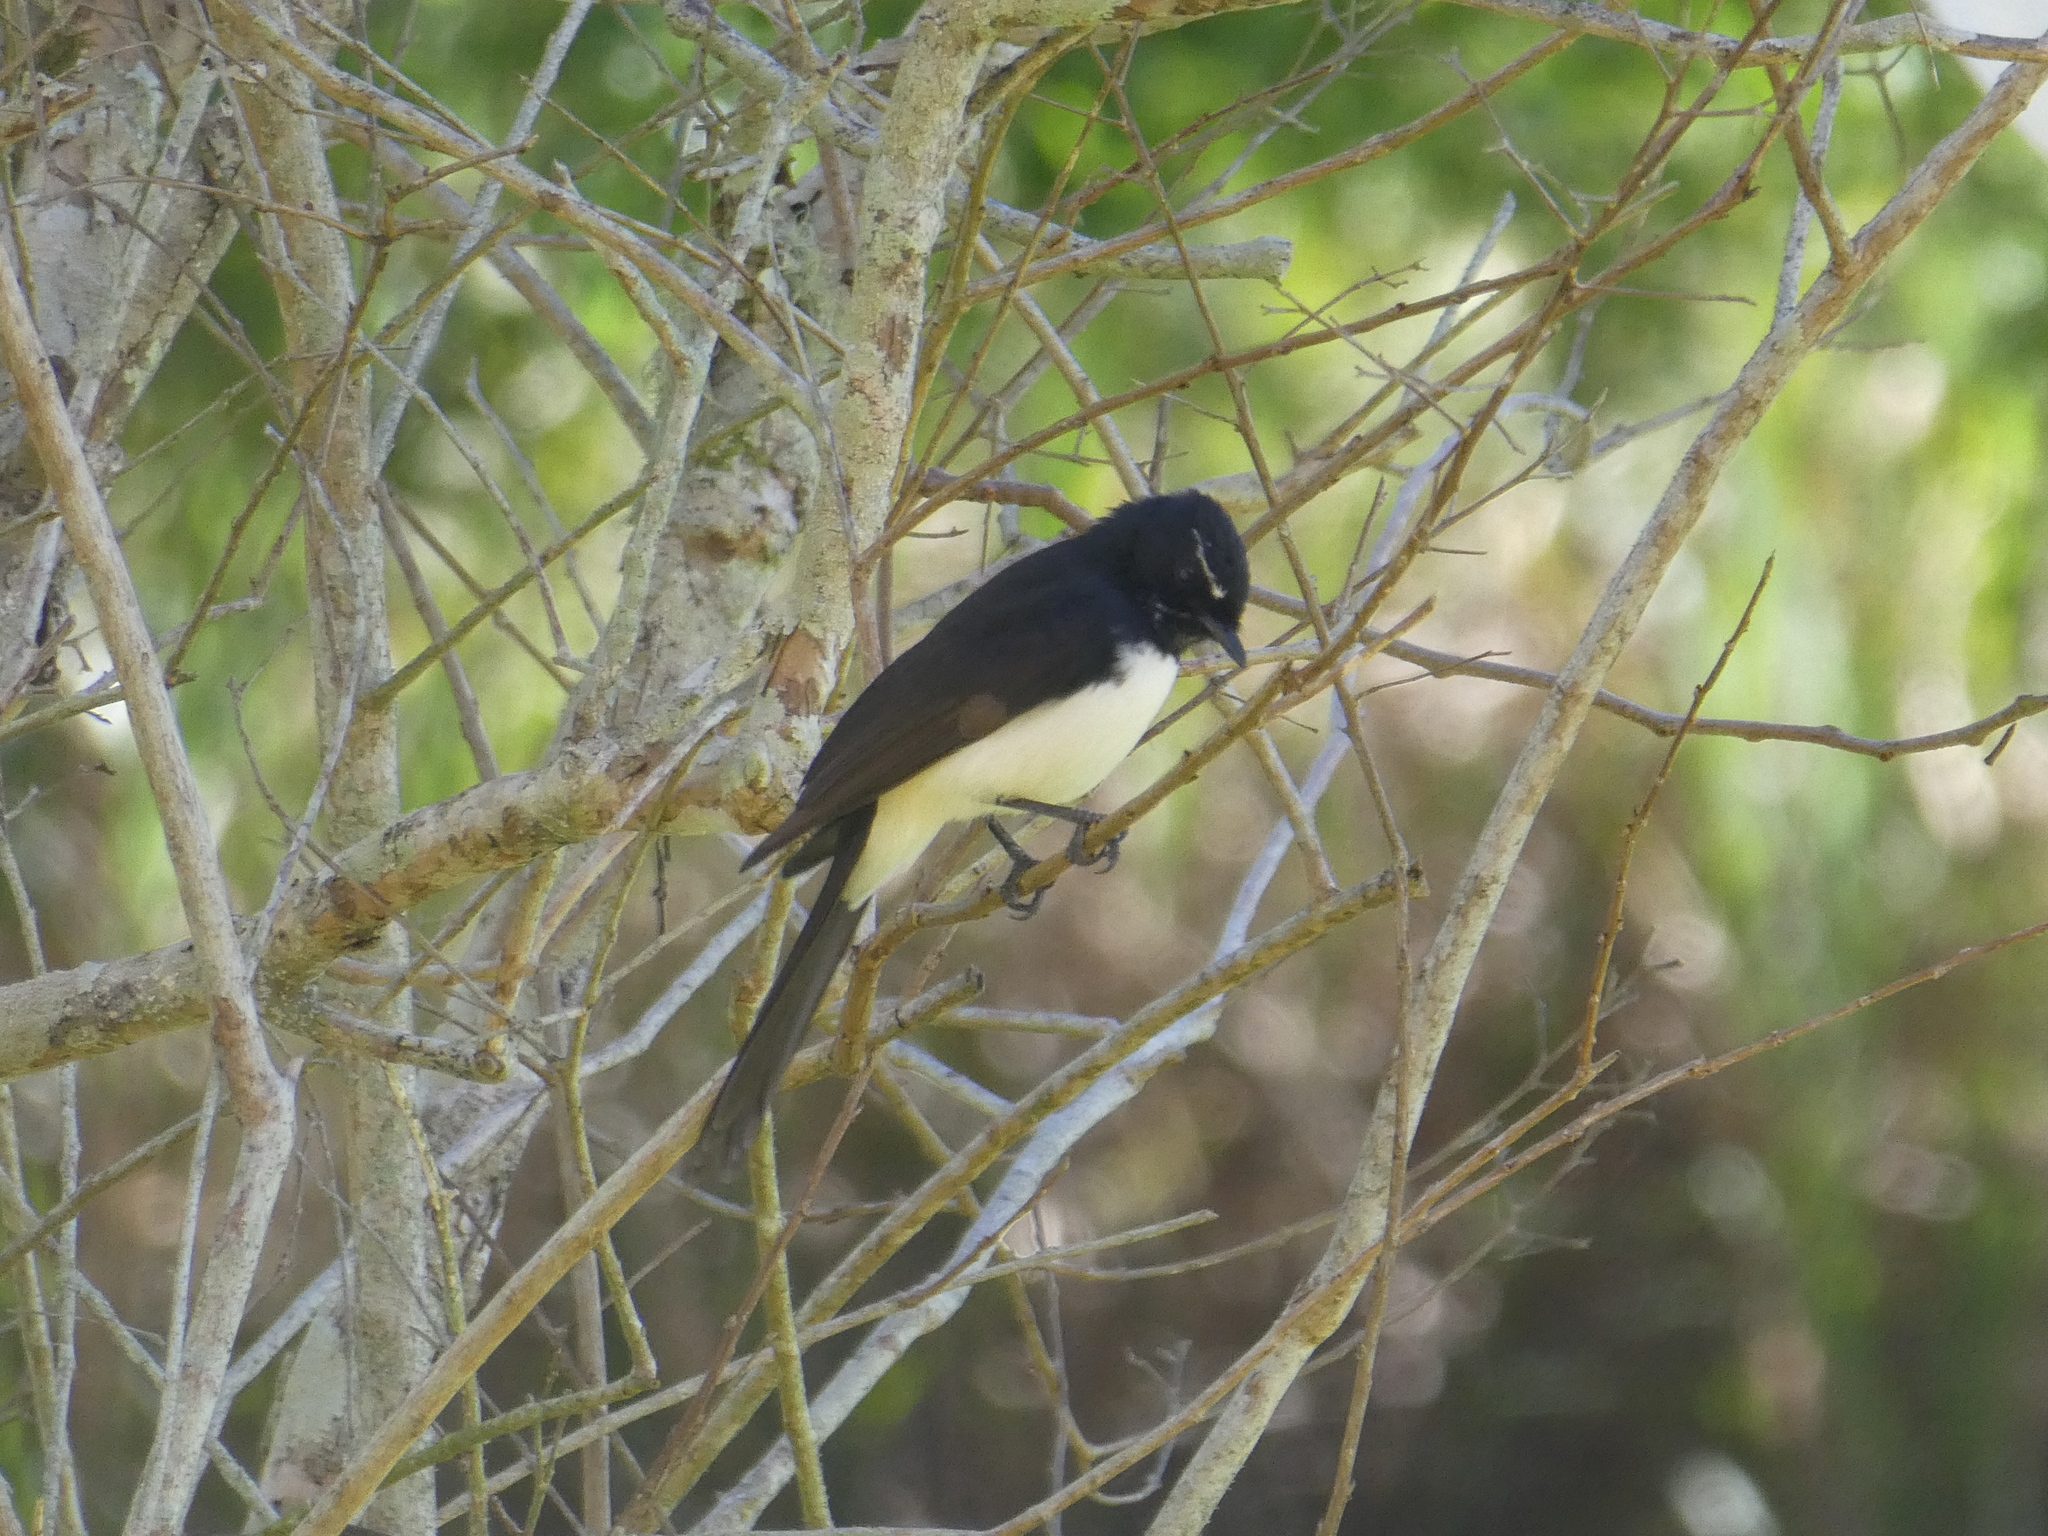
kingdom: Animalia
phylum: Chordata
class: Aves
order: Passeriformes
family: Rhipiduridae
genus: Rhipidura
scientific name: Rhipidura leucophrys
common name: Willie wagtail
